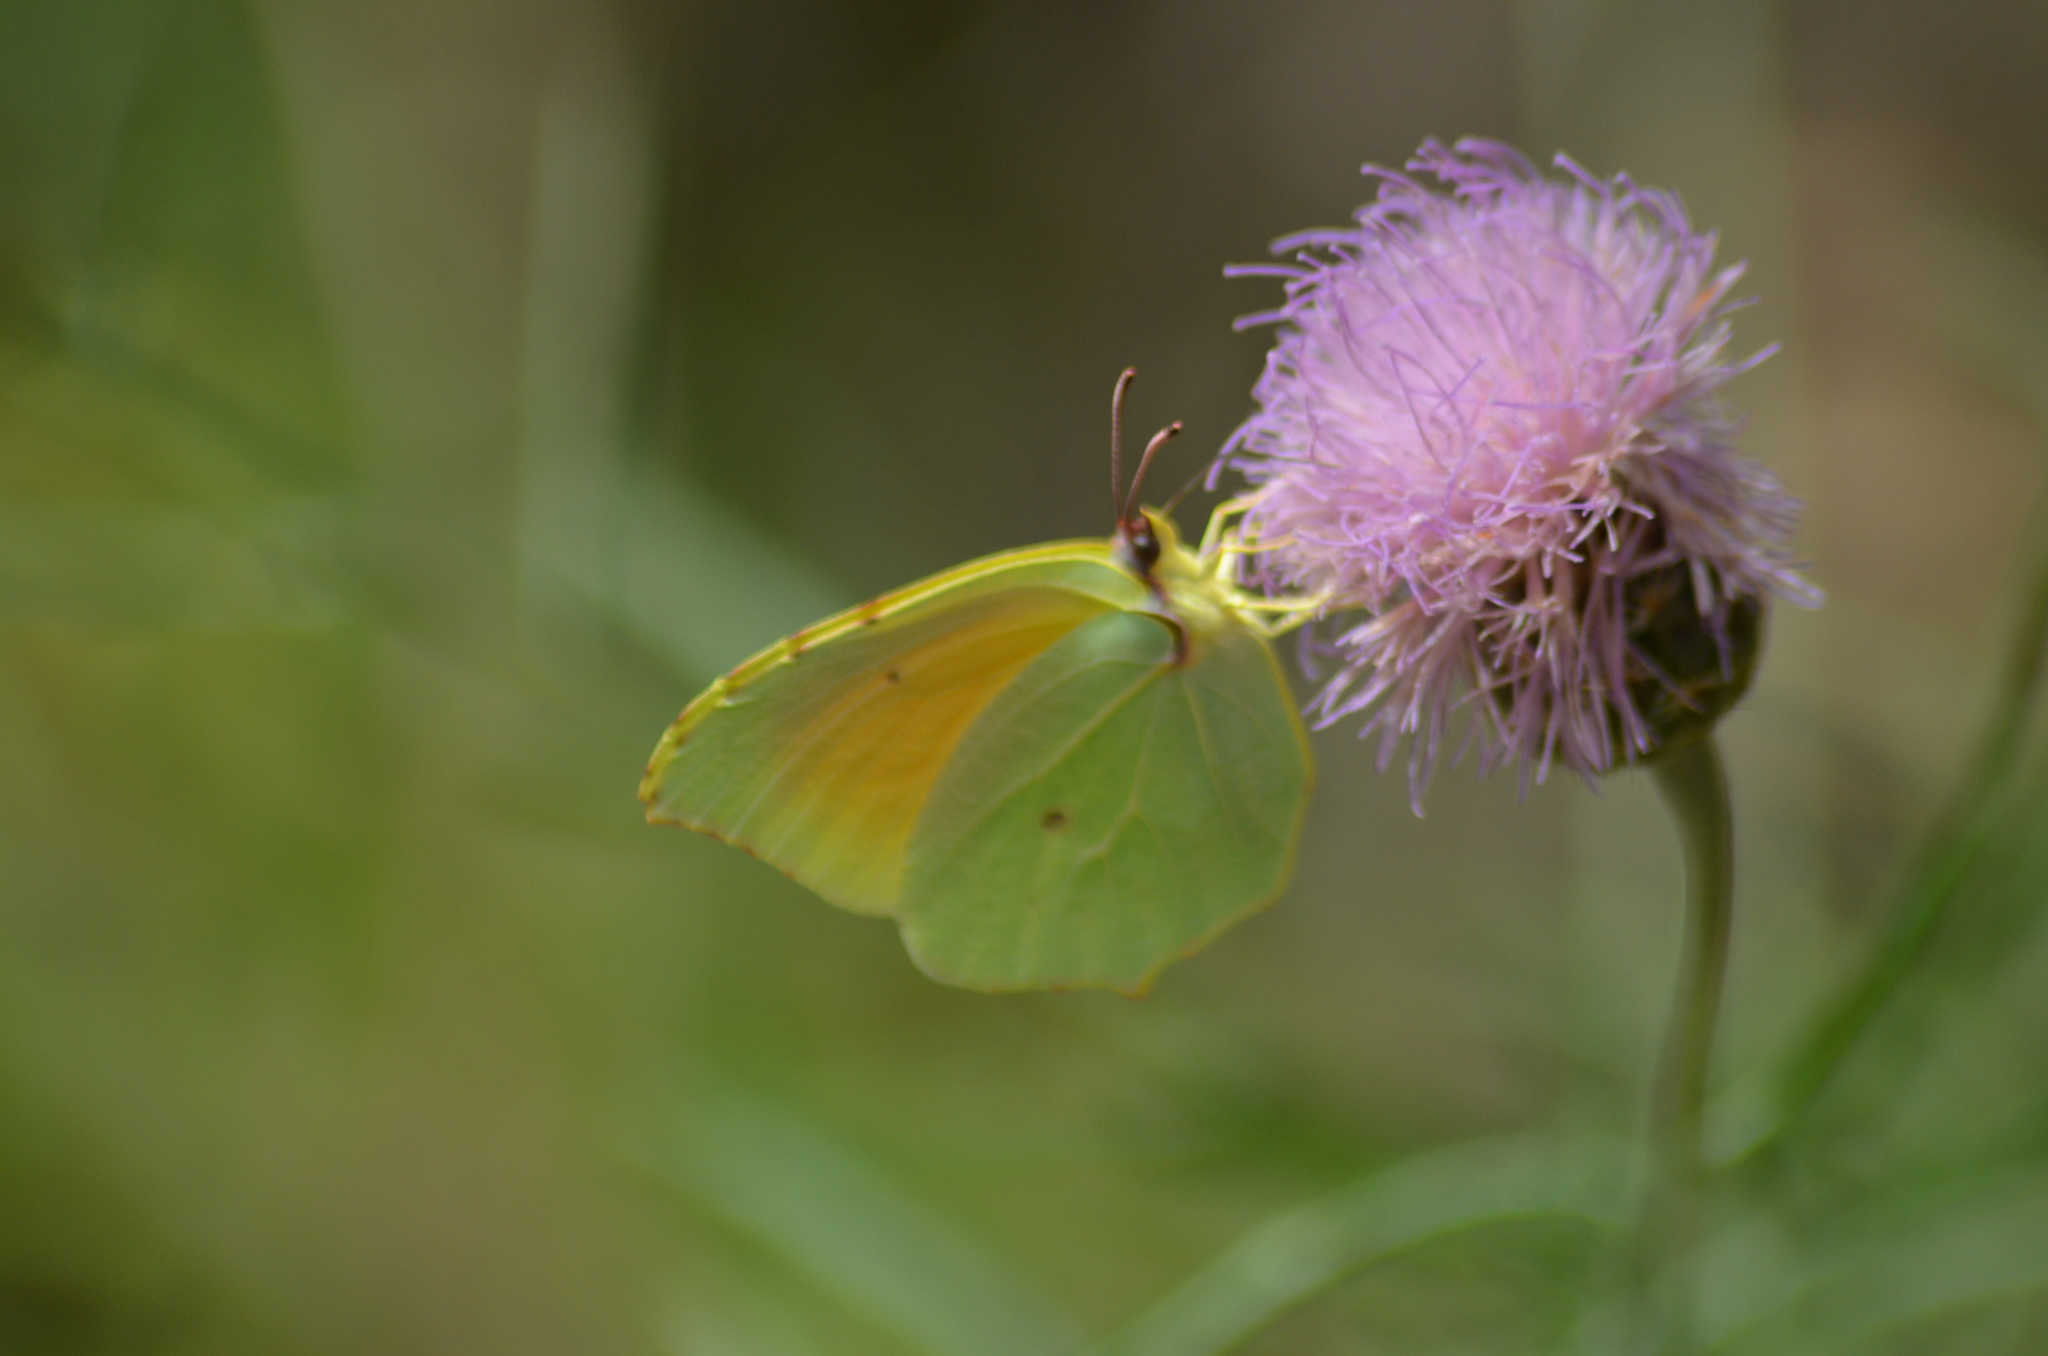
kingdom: Animalia
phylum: Arthropoda
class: Insecta
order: Lepidoptera
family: Pieridae
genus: Gonepteryx
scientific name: Gonepteryx cleopatra
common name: Cleopatra
